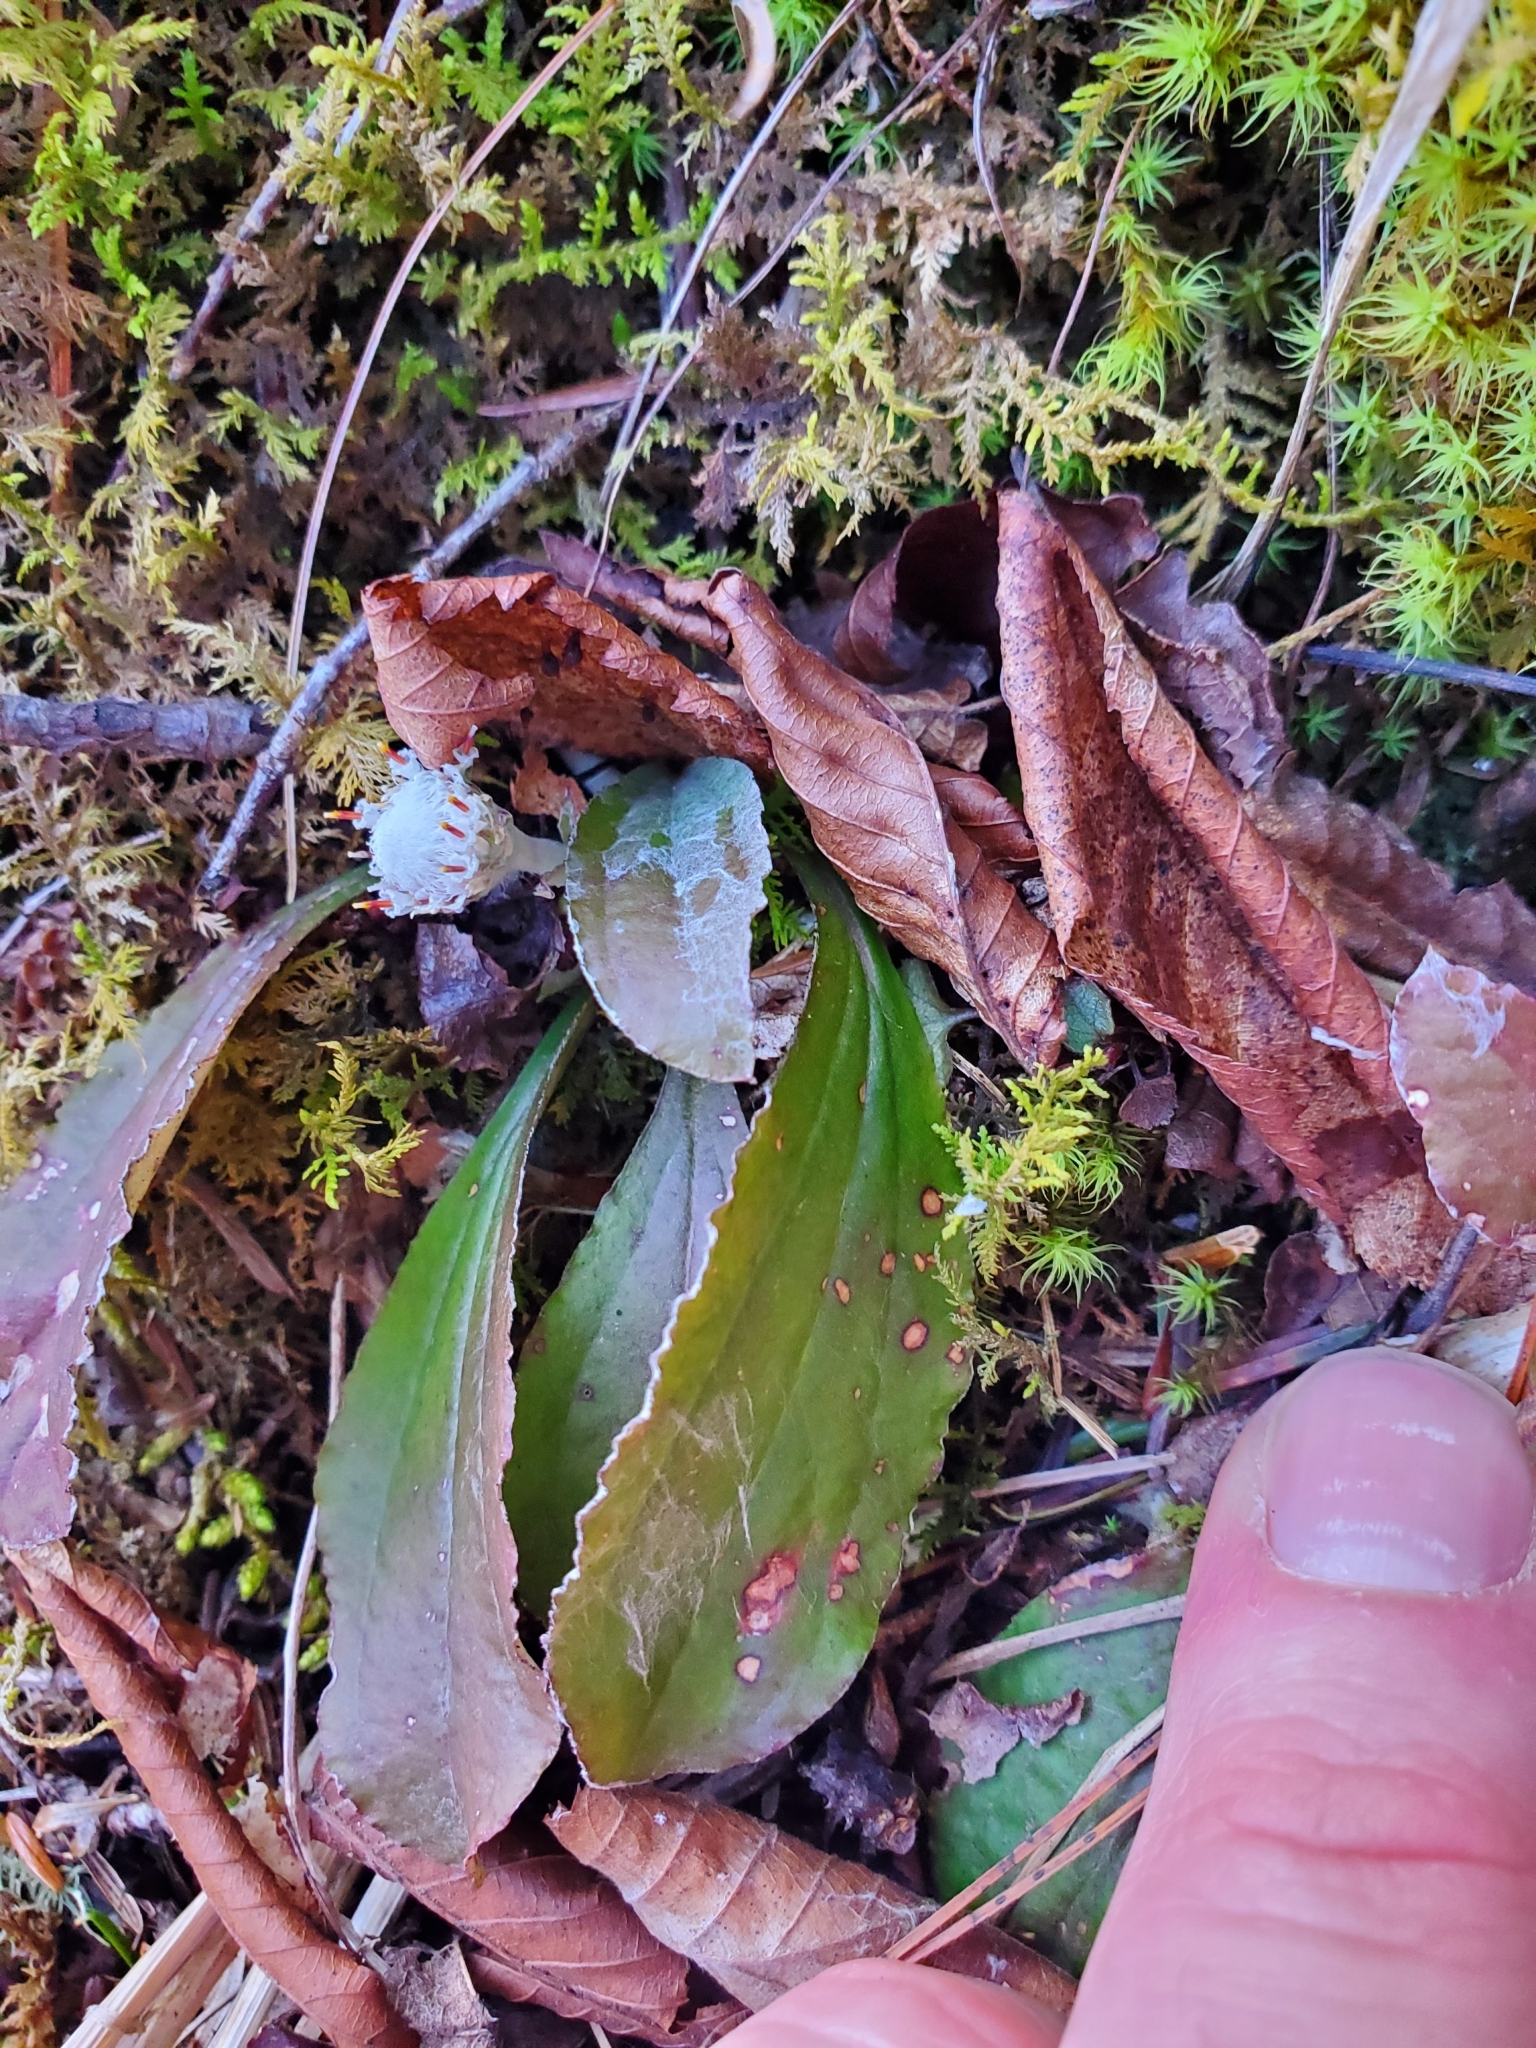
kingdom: Plantae
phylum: Tracheophyta
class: Magnoliopsida
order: Asterales
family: Asteraceae
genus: Antennaria
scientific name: Antennaria solitaria
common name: Single-head pussytoes
